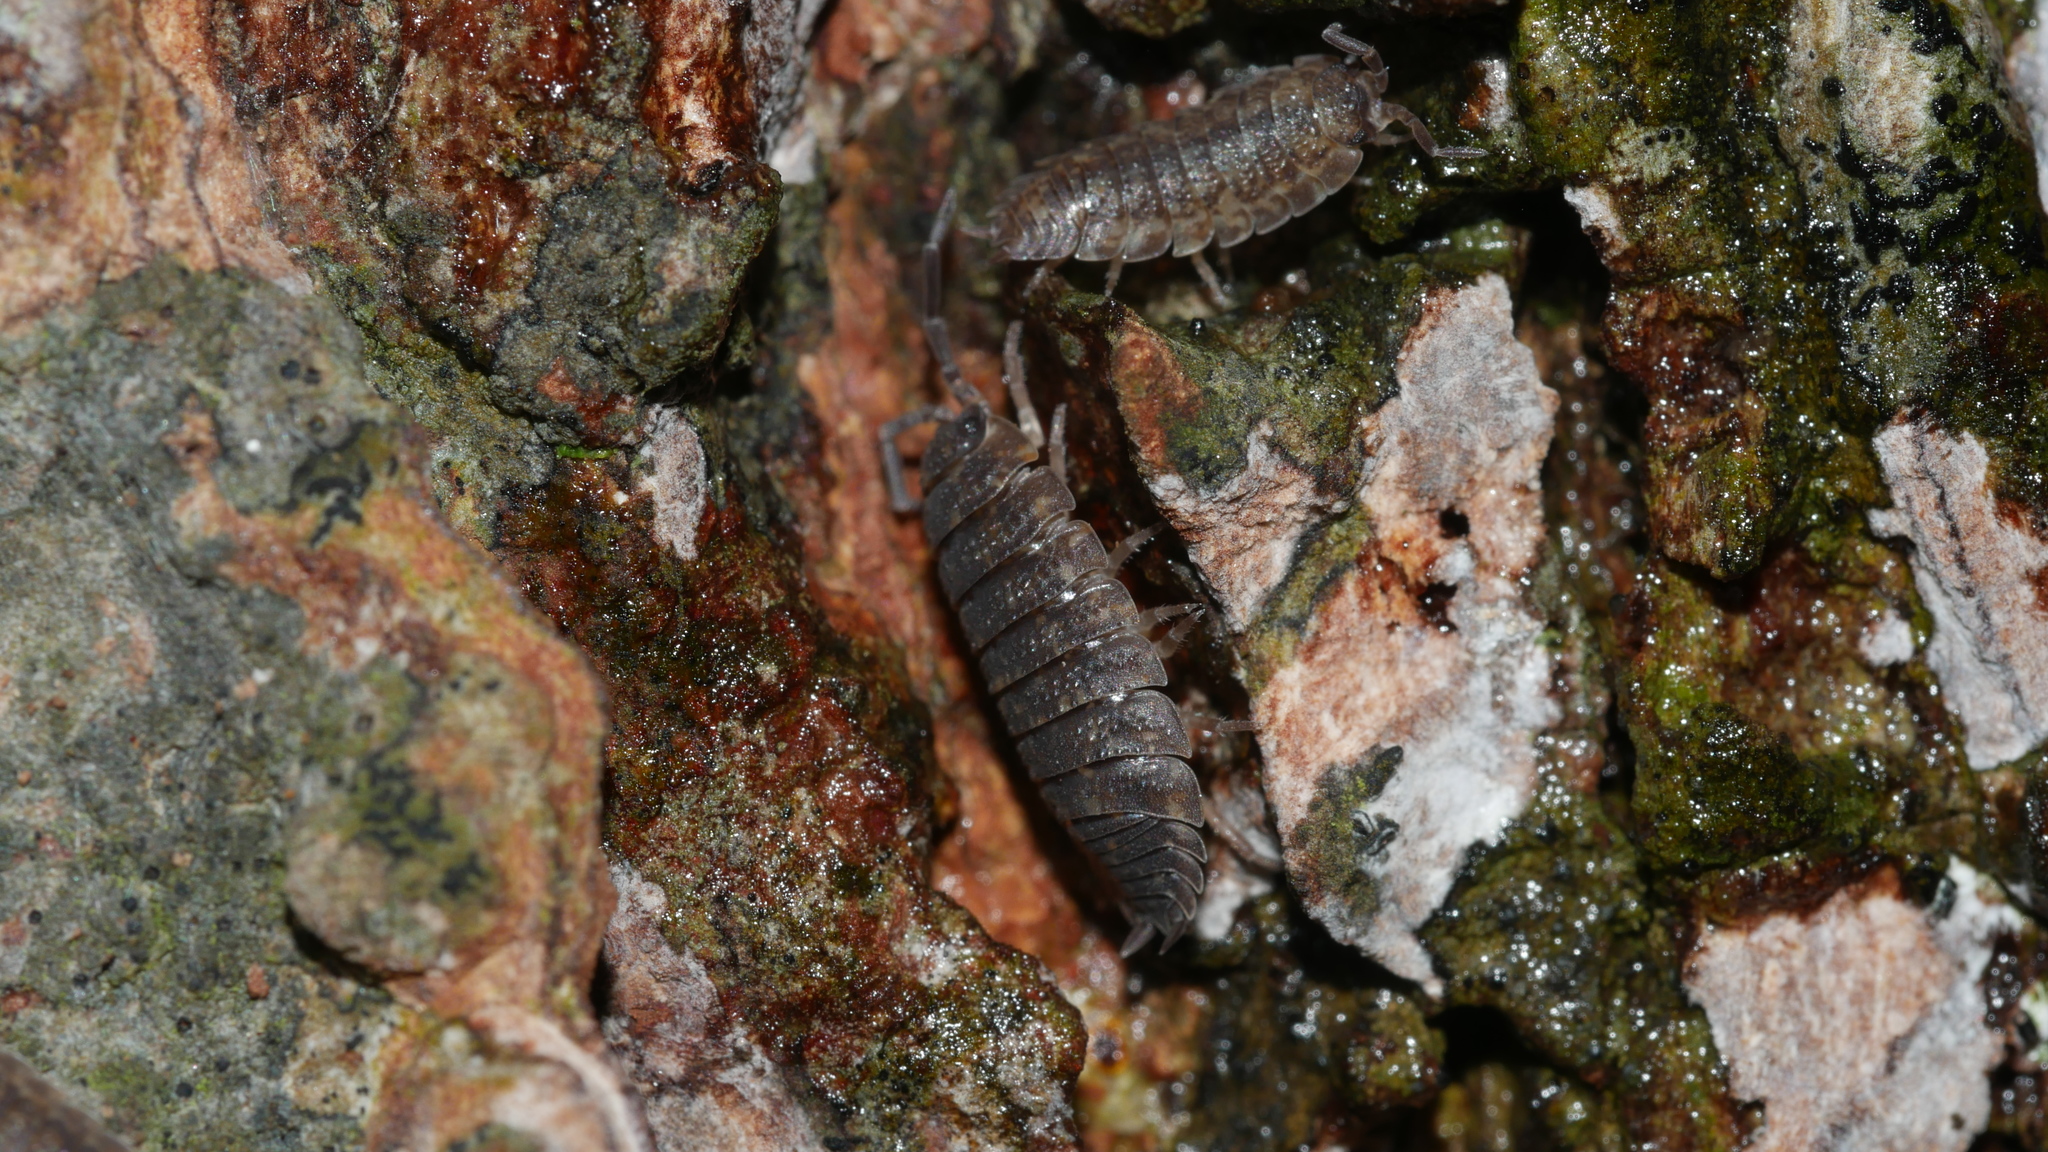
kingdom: Animalia
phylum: Arthropoda
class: Malacostraca
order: Isopoda
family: Porcellionidae
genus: Porcellio
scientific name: Porcellio scaber
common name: Common rough woodlouse
